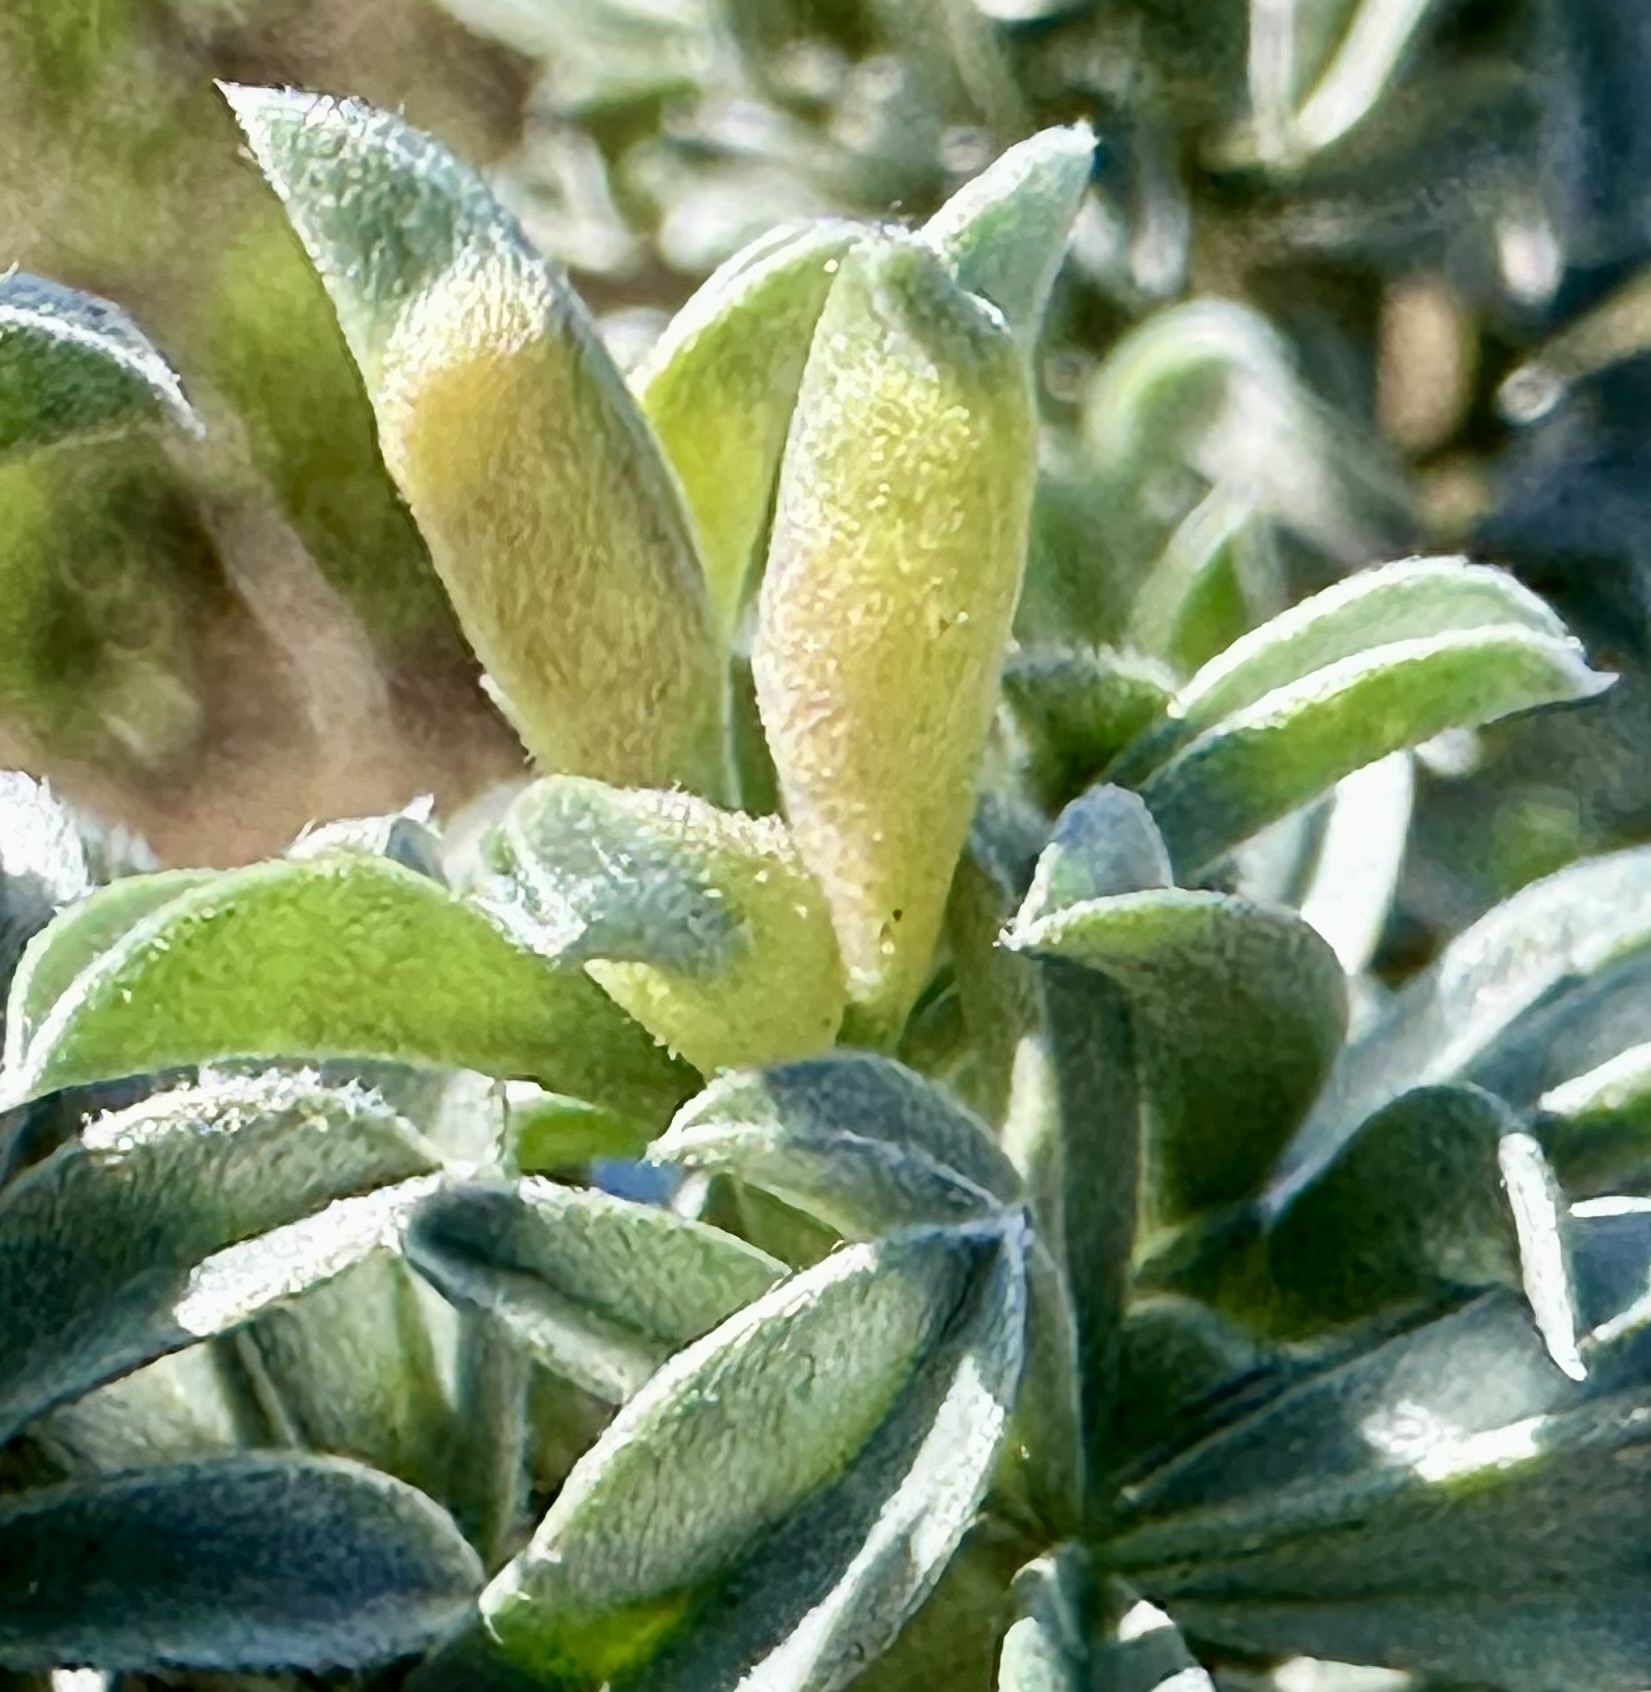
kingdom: Animalia
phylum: Arthropoda
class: Insecta
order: Diptera
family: Cecidomyiidae
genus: Dasineura
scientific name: Dasineura lupinorum
